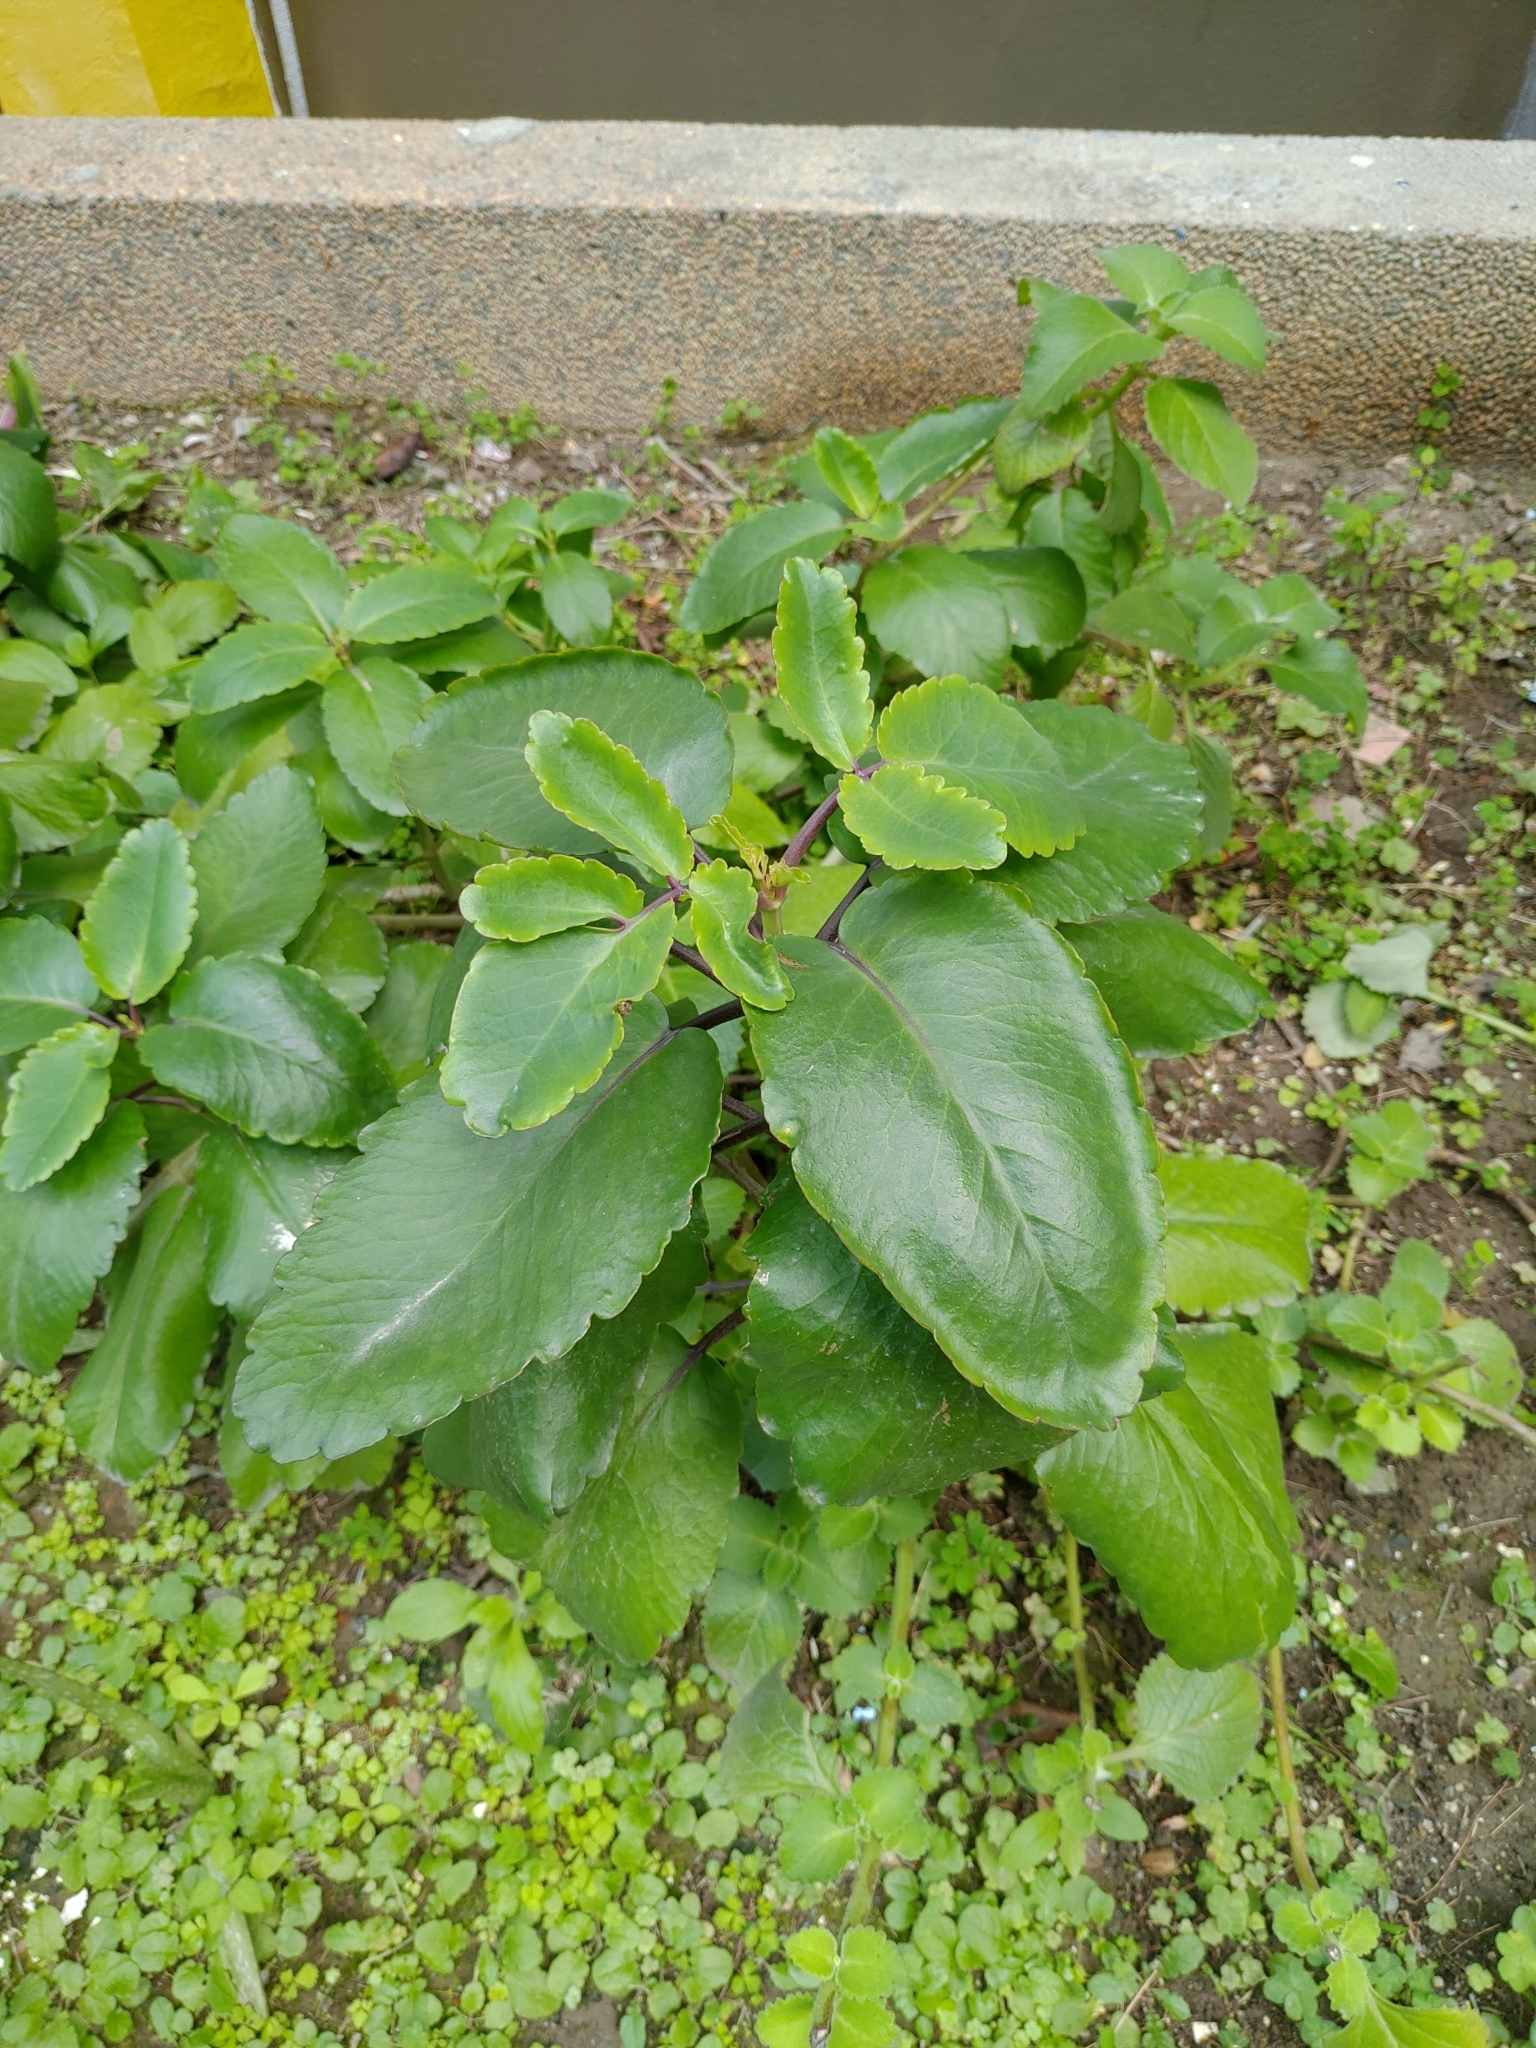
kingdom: Plantae
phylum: Tracheophyta
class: Magnoliopsida
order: Saxifragales
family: Crassulaceae
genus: Kalanchoe
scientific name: Kalanchoe pinnata
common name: Cathedral bells
